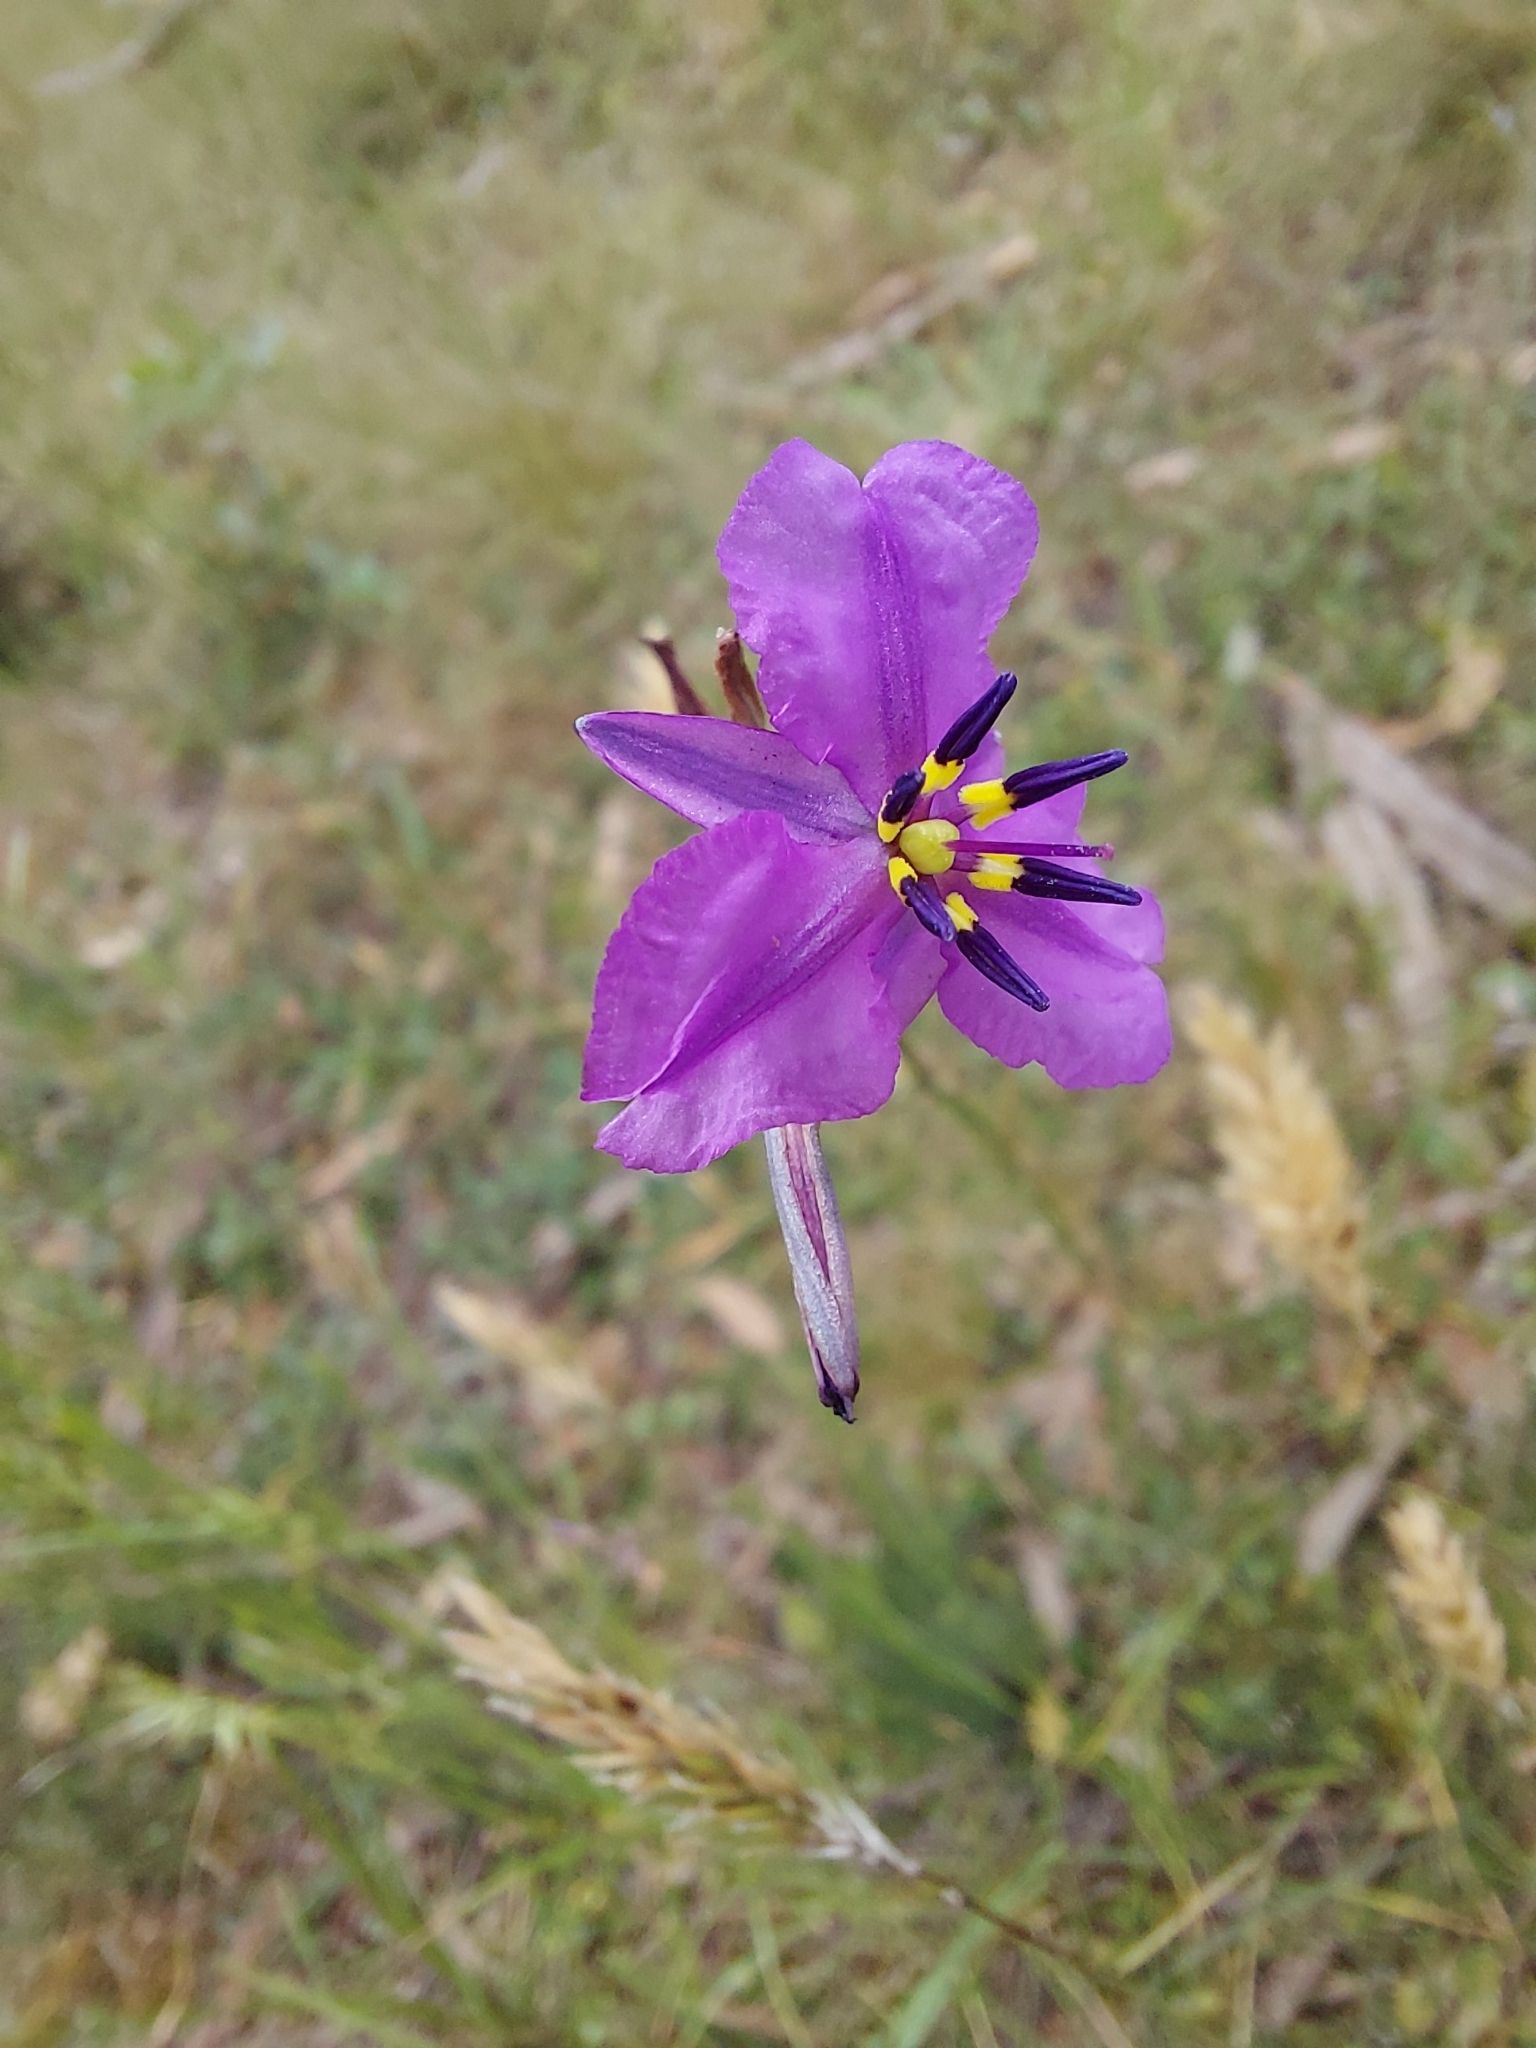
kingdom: Plantae
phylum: Tracheophyta
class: Liliopsida
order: Asparagales
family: Asparagaceae
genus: Arthropodium
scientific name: Arthropodium strictum
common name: Chocolate-lily
